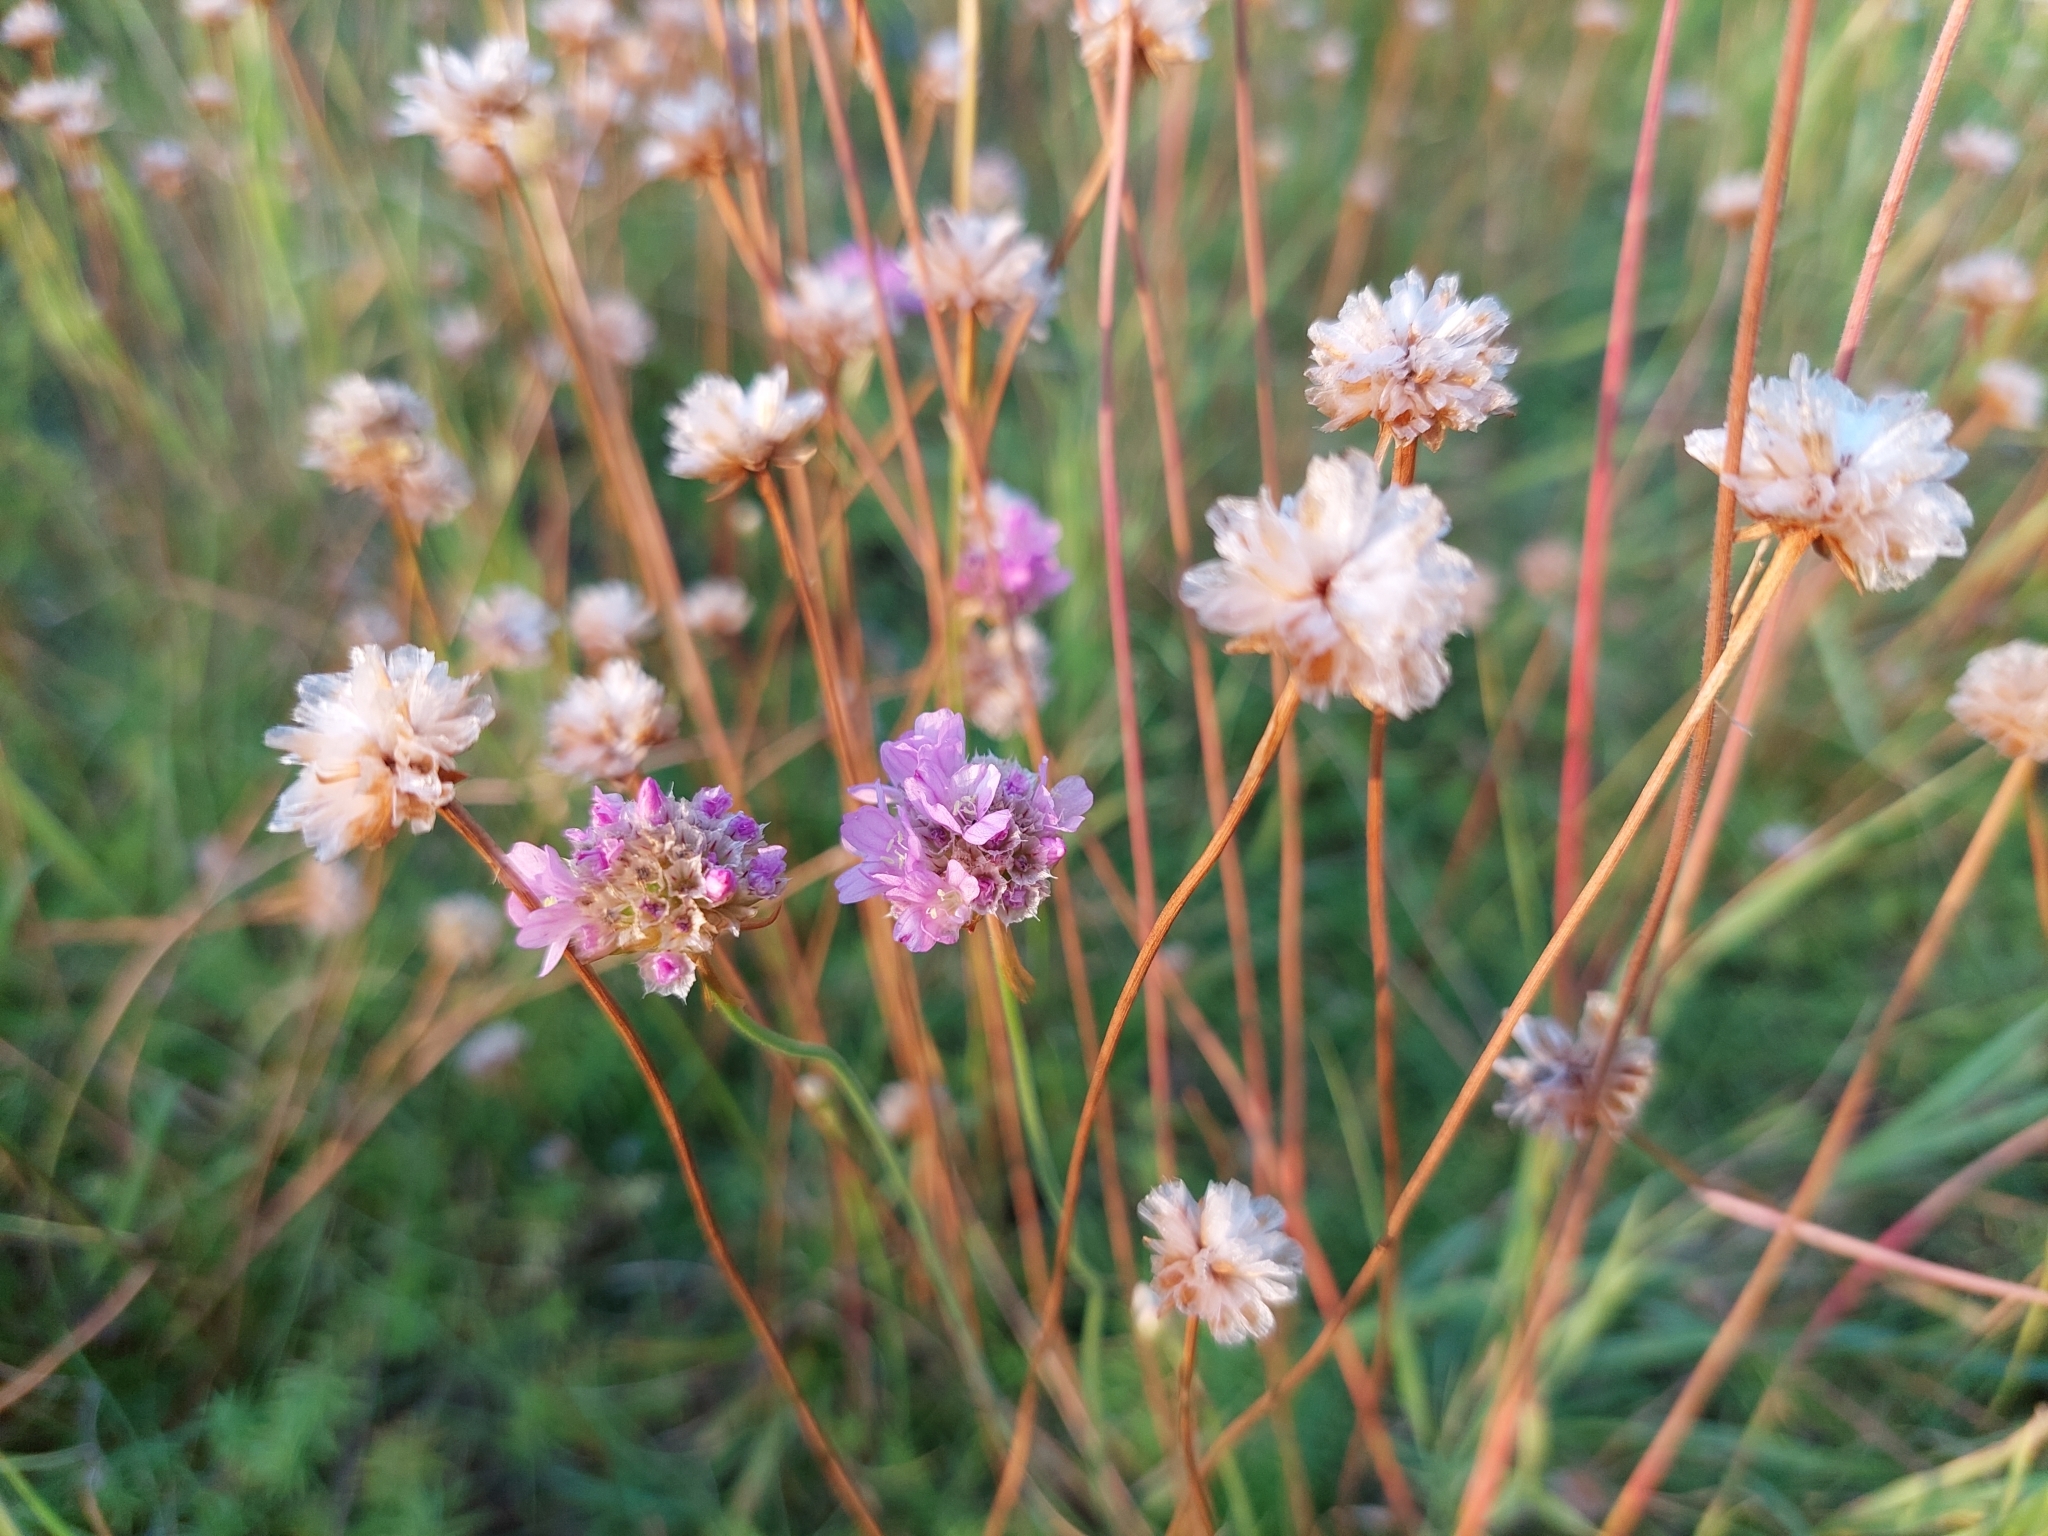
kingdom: Plantae
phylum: Tracheophyta
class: Magnoliopsida
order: Caryophyllales
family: Plumbaginaceae
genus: Armeria
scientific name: Armeria maritima
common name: Thrift
